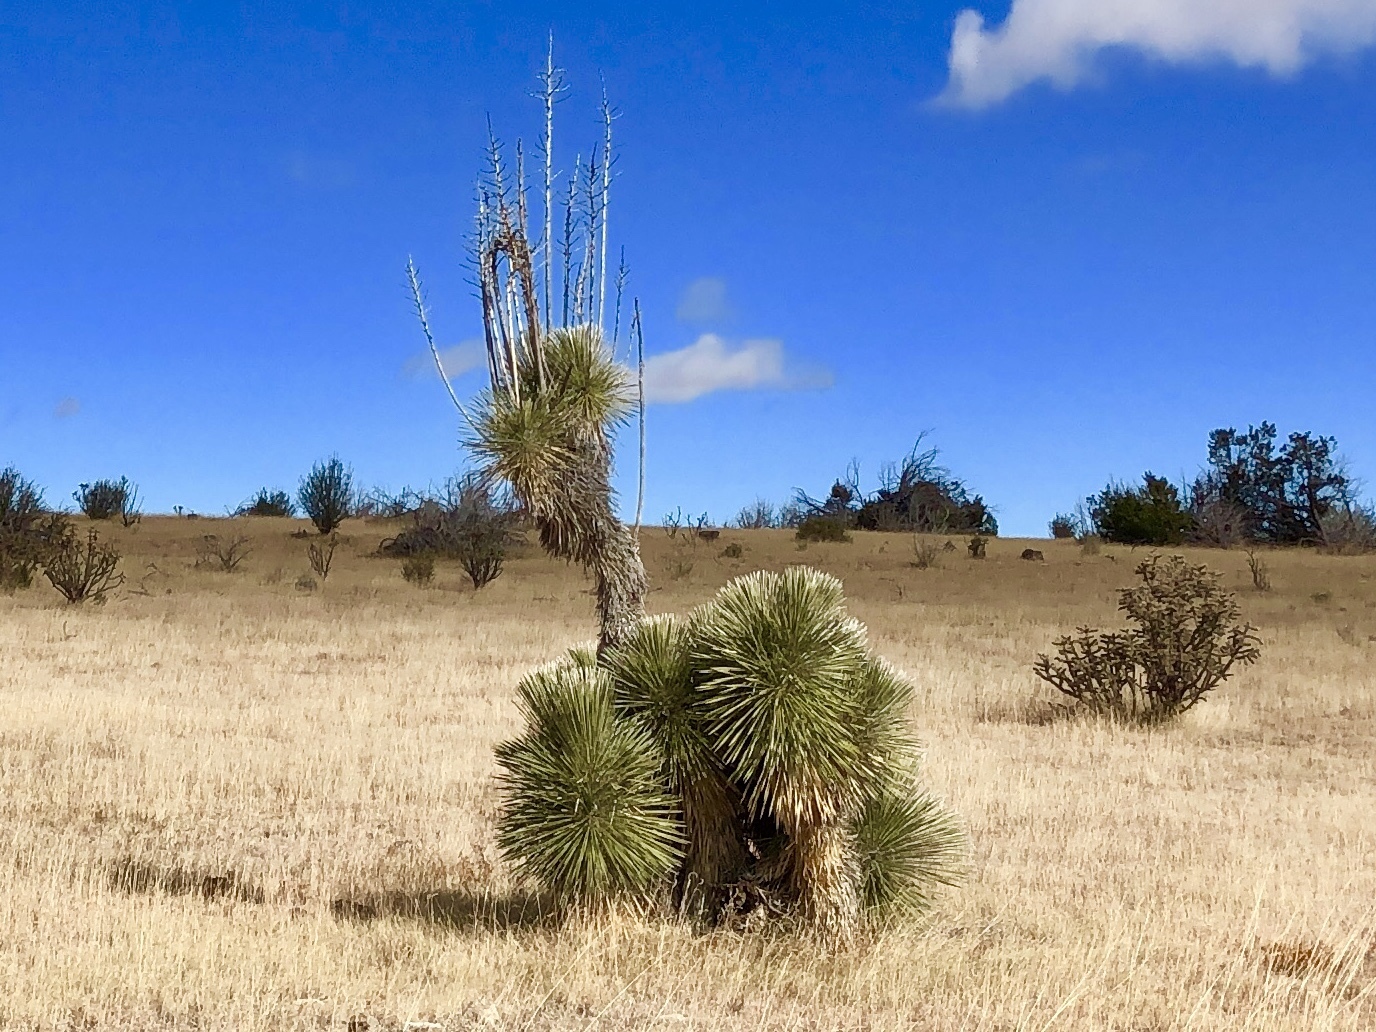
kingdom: Plantae
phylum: Tracheophyta
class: Liliopsida
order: Asparagales
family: Asparagaceae
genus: Yucca
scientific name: Yucca elata
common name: Palmella
